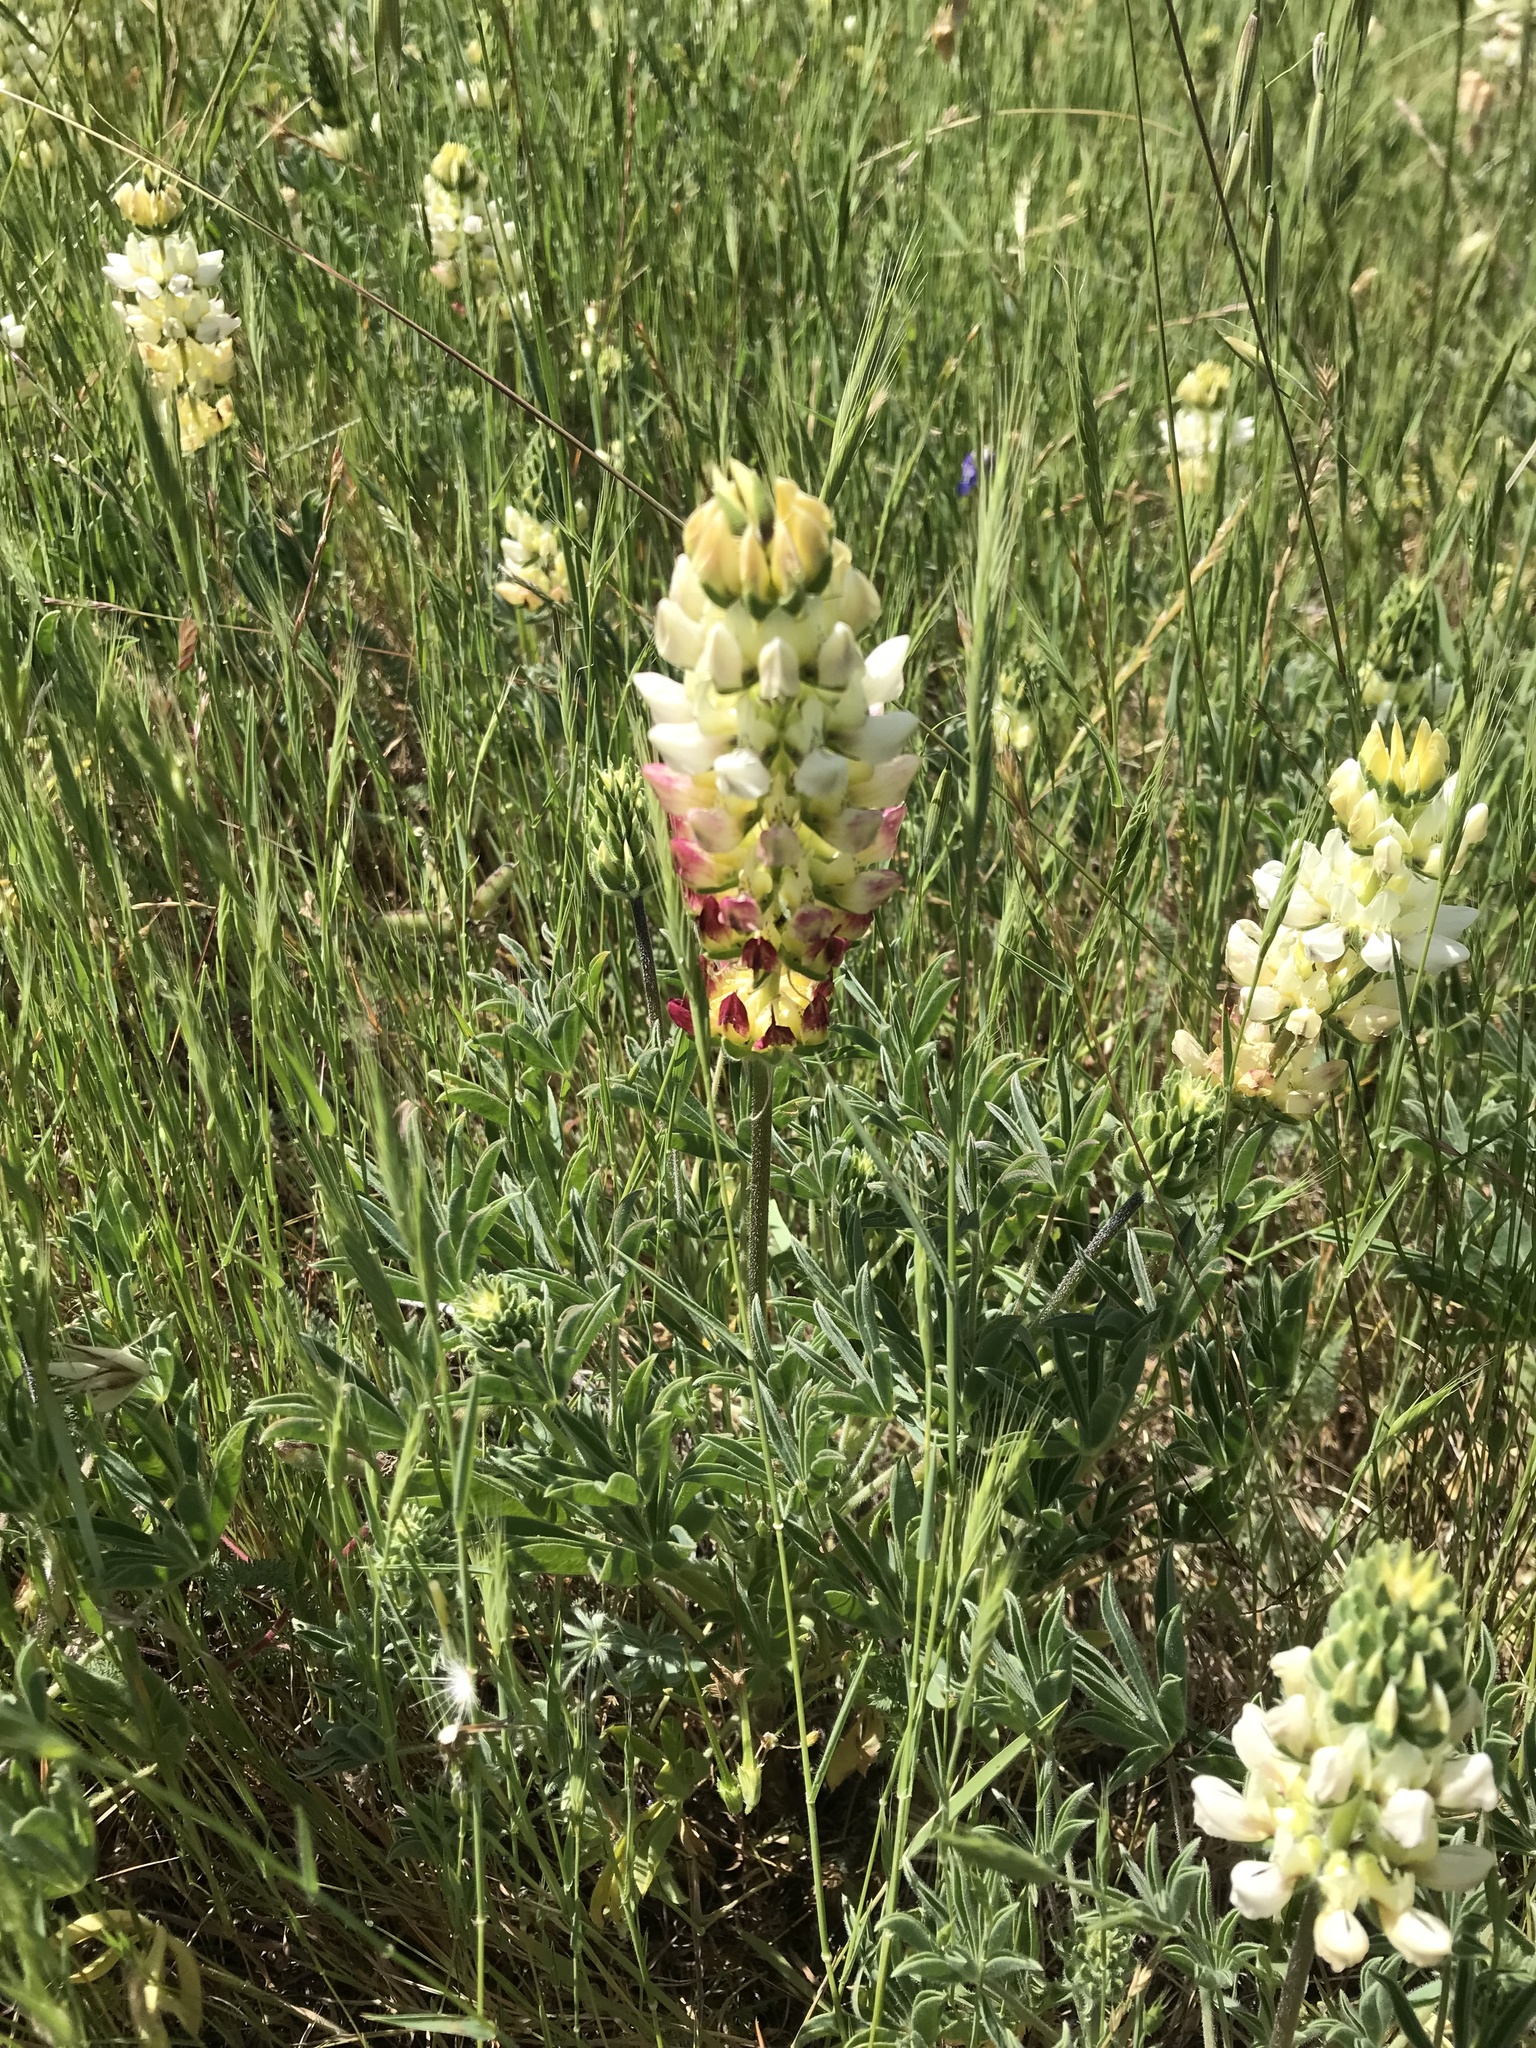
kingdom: Plantae
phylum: Tracheophyta
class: Magnoliopsida
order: Fabales
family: Fabaceae
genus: Lupinus
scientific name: Lupinus microcarpus
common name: Chick lupine
